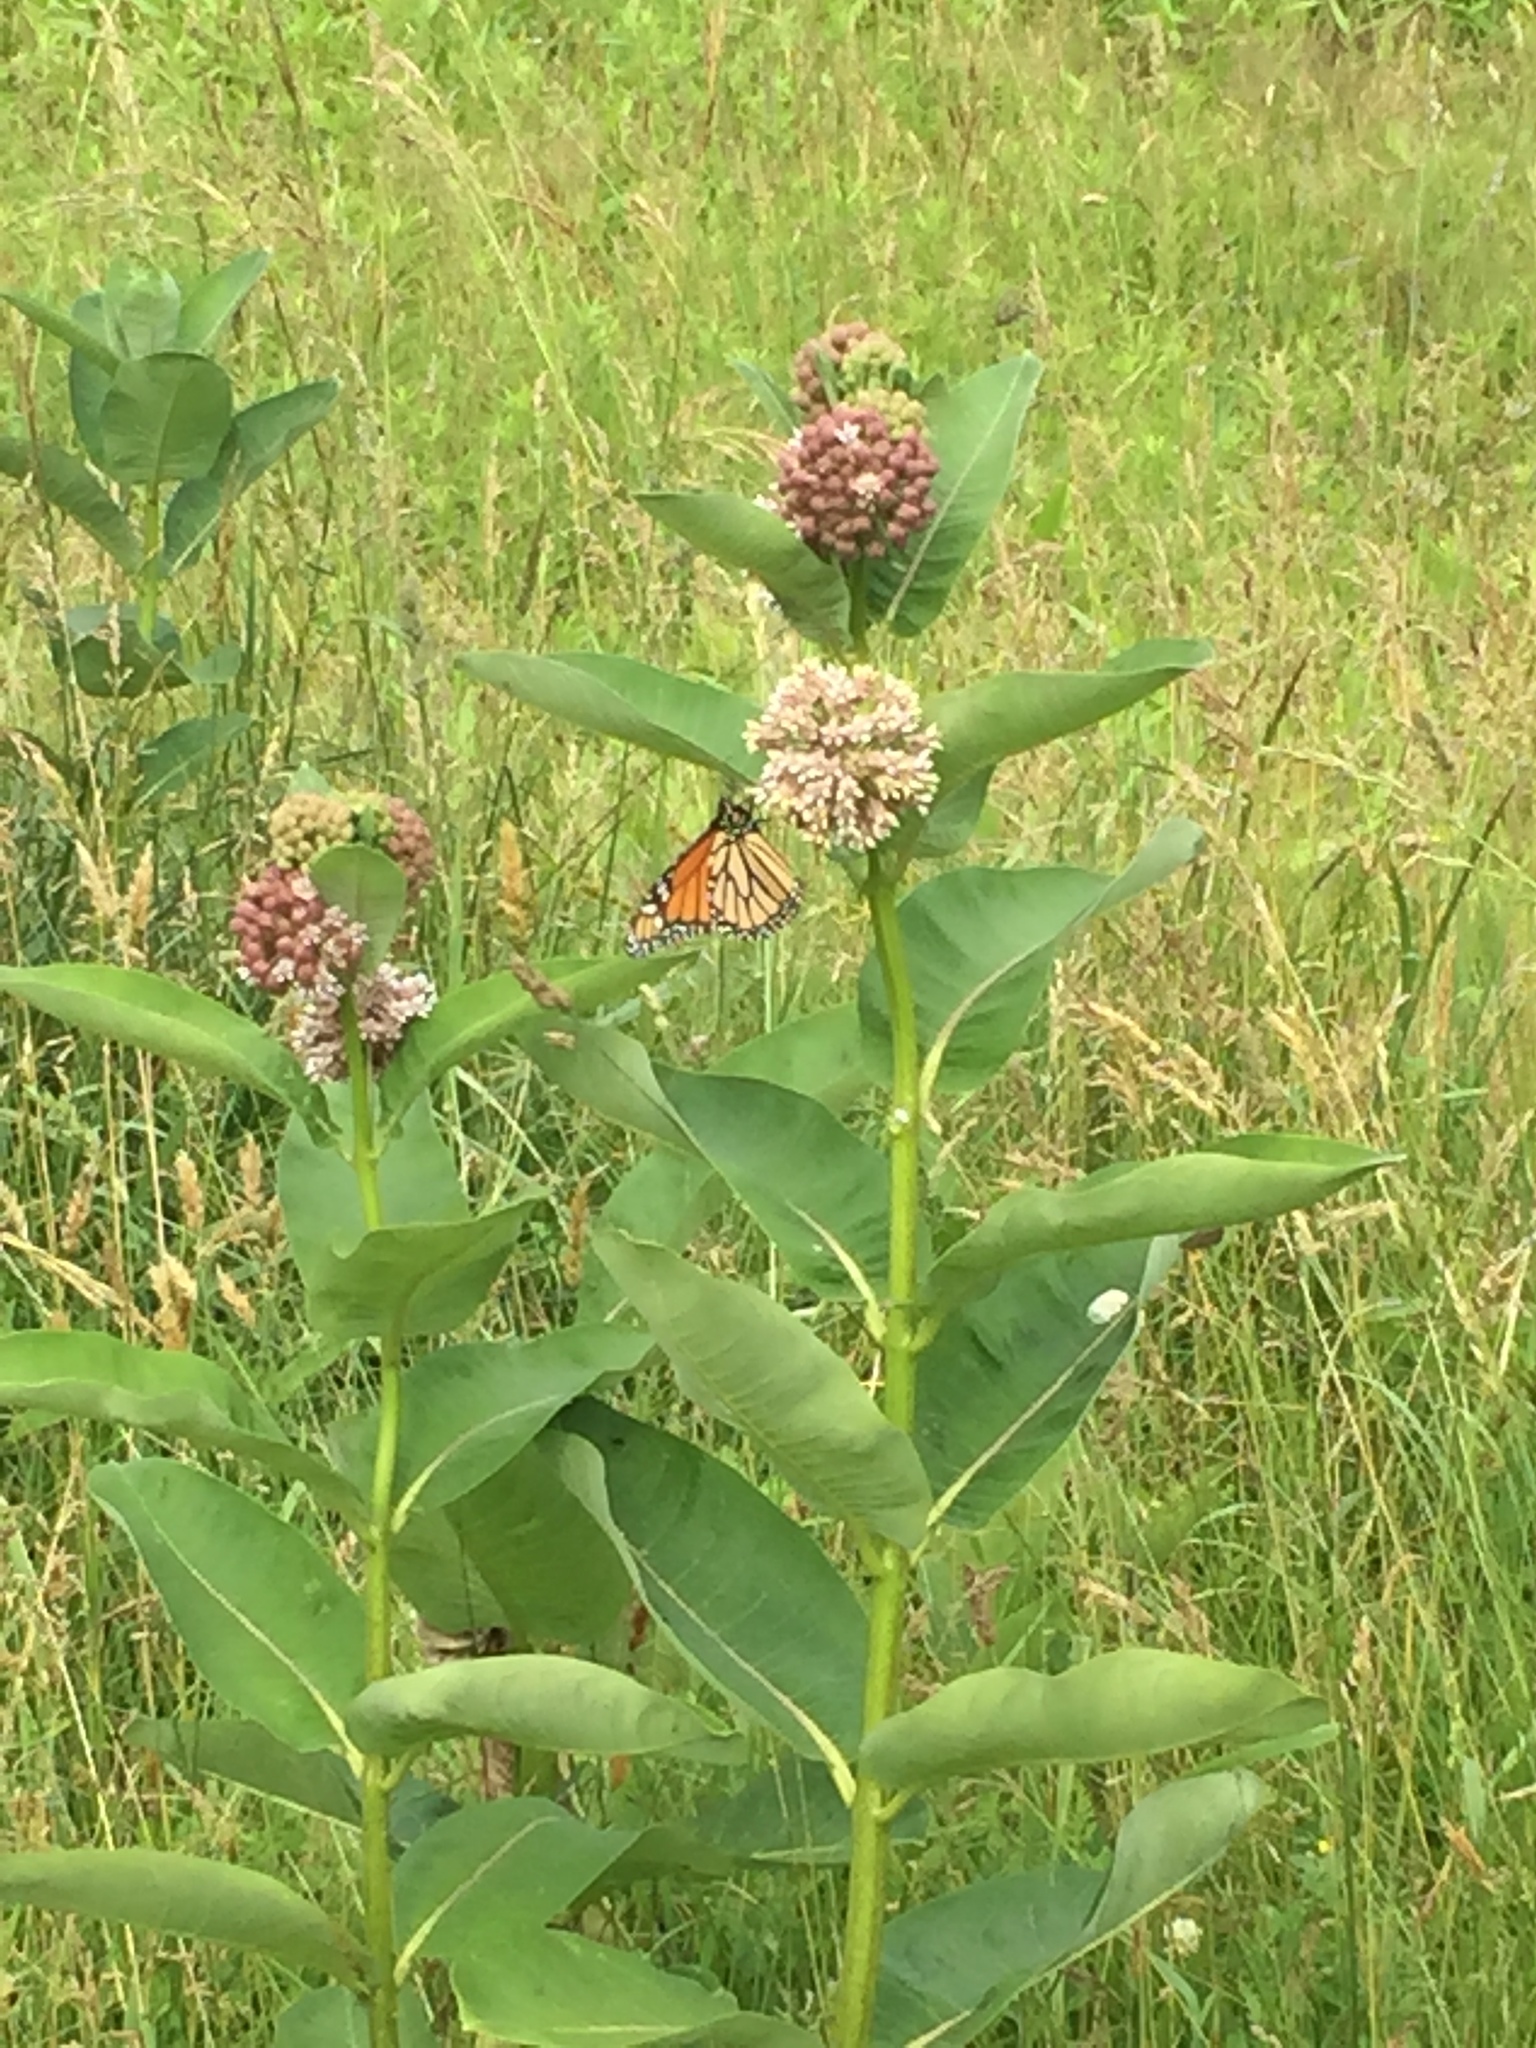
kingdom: Animalia
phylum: Arthropoda
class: Insecta
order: Lepidoptera
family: Nymphalidae
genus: Danaus
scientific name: Danaus plexippus
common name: Monarch
